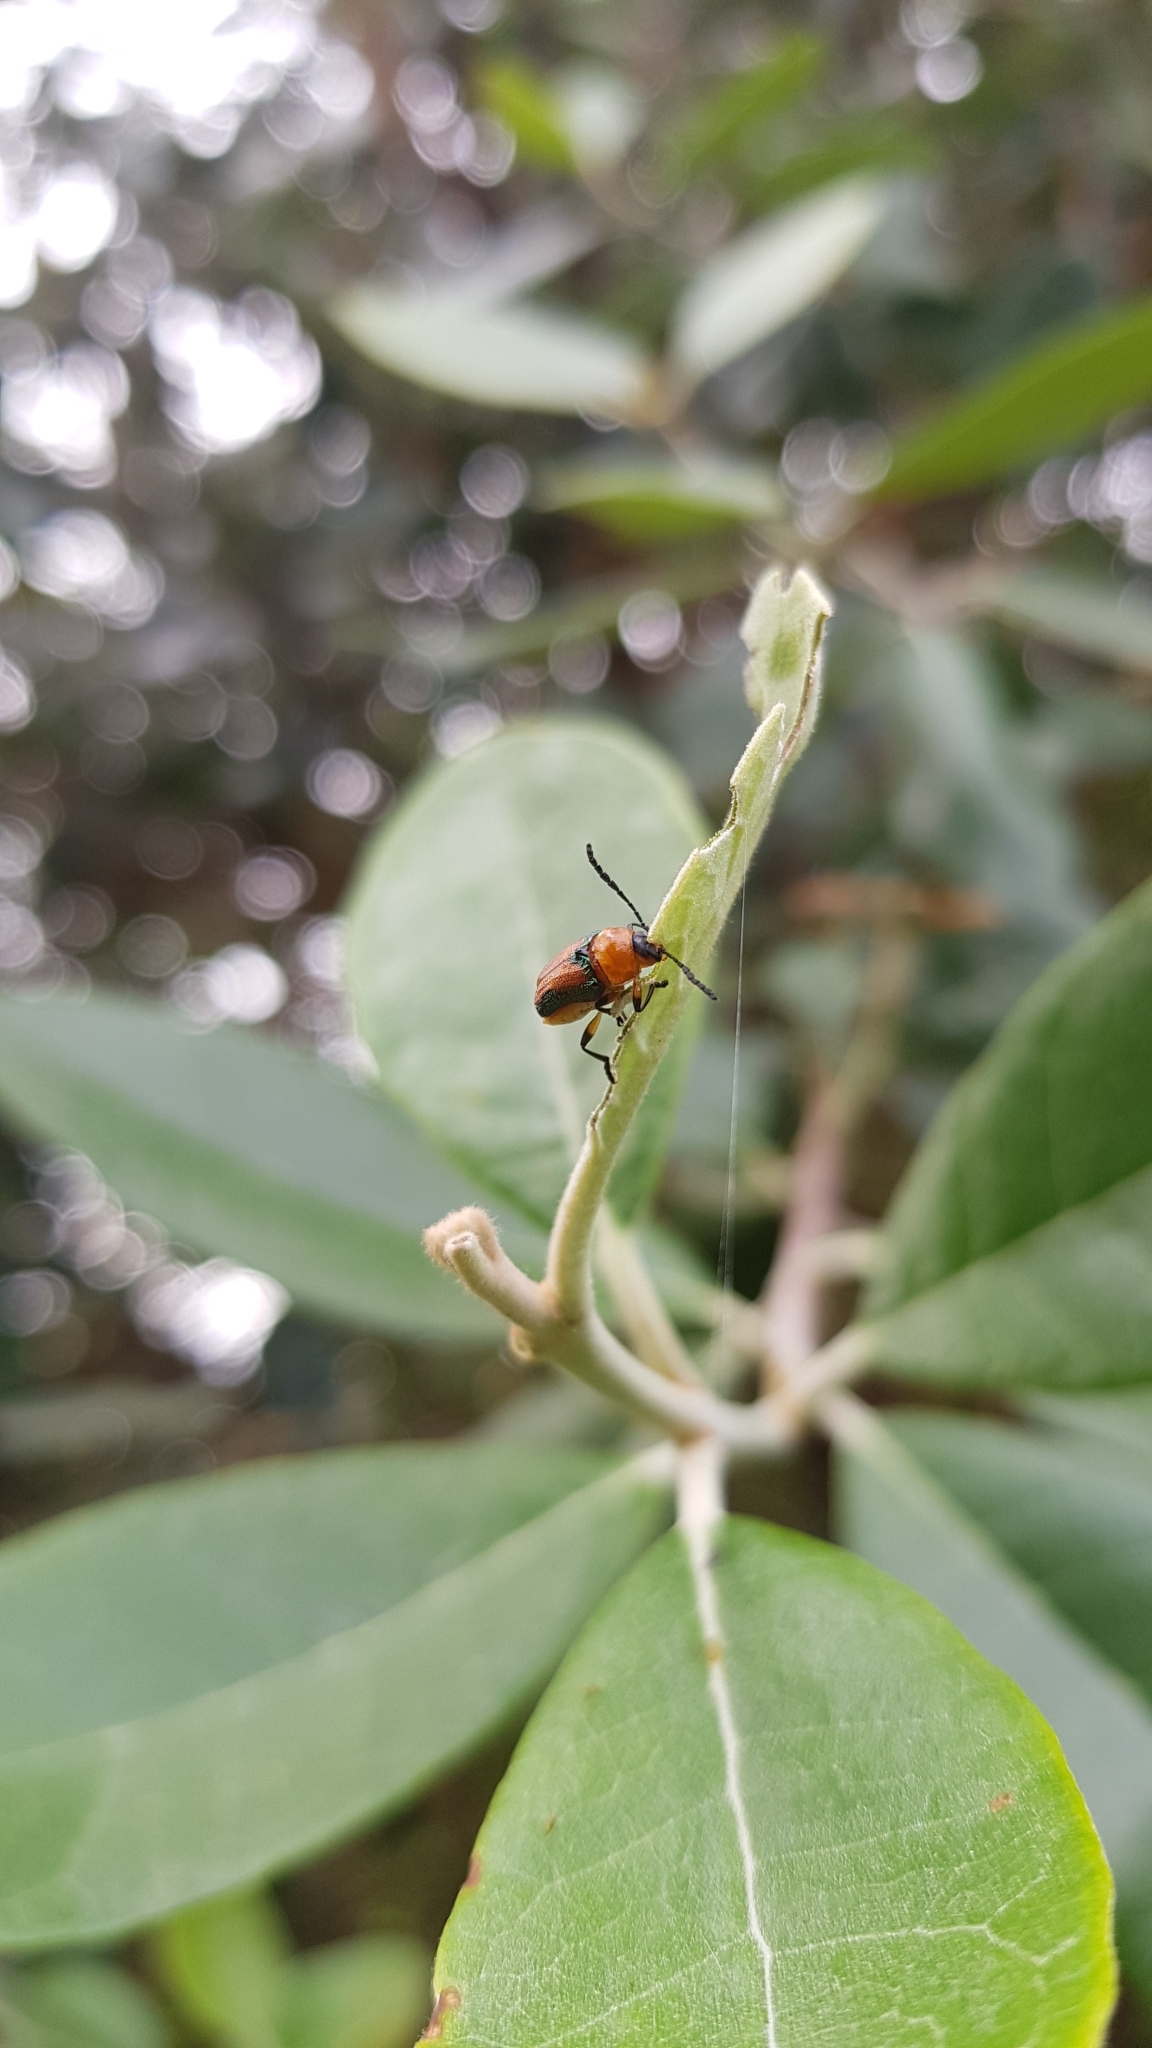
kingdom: Animalia
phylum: Arthropoda
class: Insecta
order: Coleoptera
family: Chrysomelidae
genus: Aporocera
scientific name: Aporocera iridipennis
